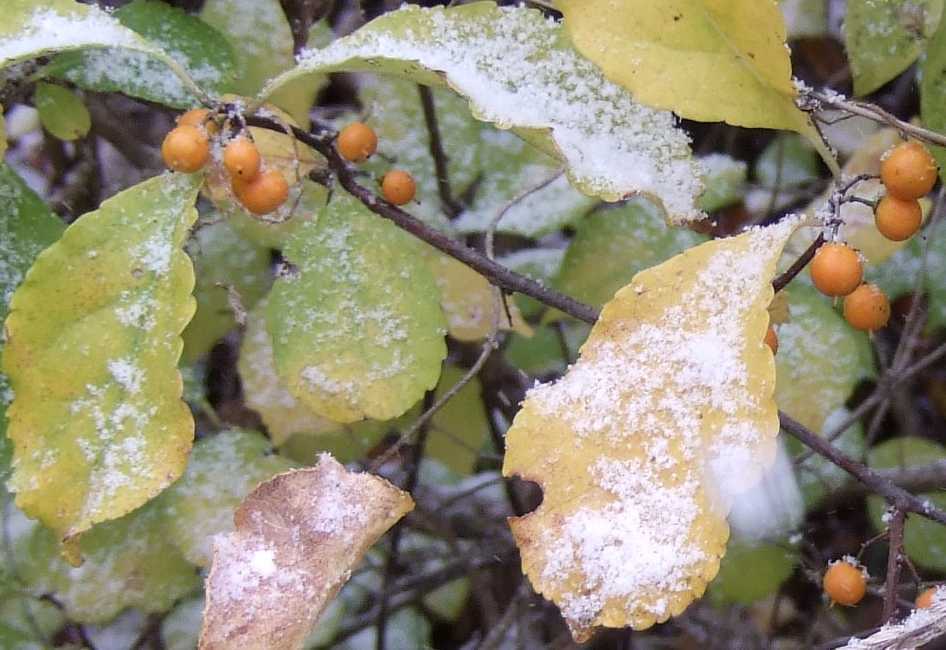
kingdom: Plantae
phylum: Tracheophyta
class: Magnoliopsida
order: Celastrales
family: Celastraceae
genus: Celastrus
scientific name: Celastrus orbiculatus
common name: Oriental bittersweet
